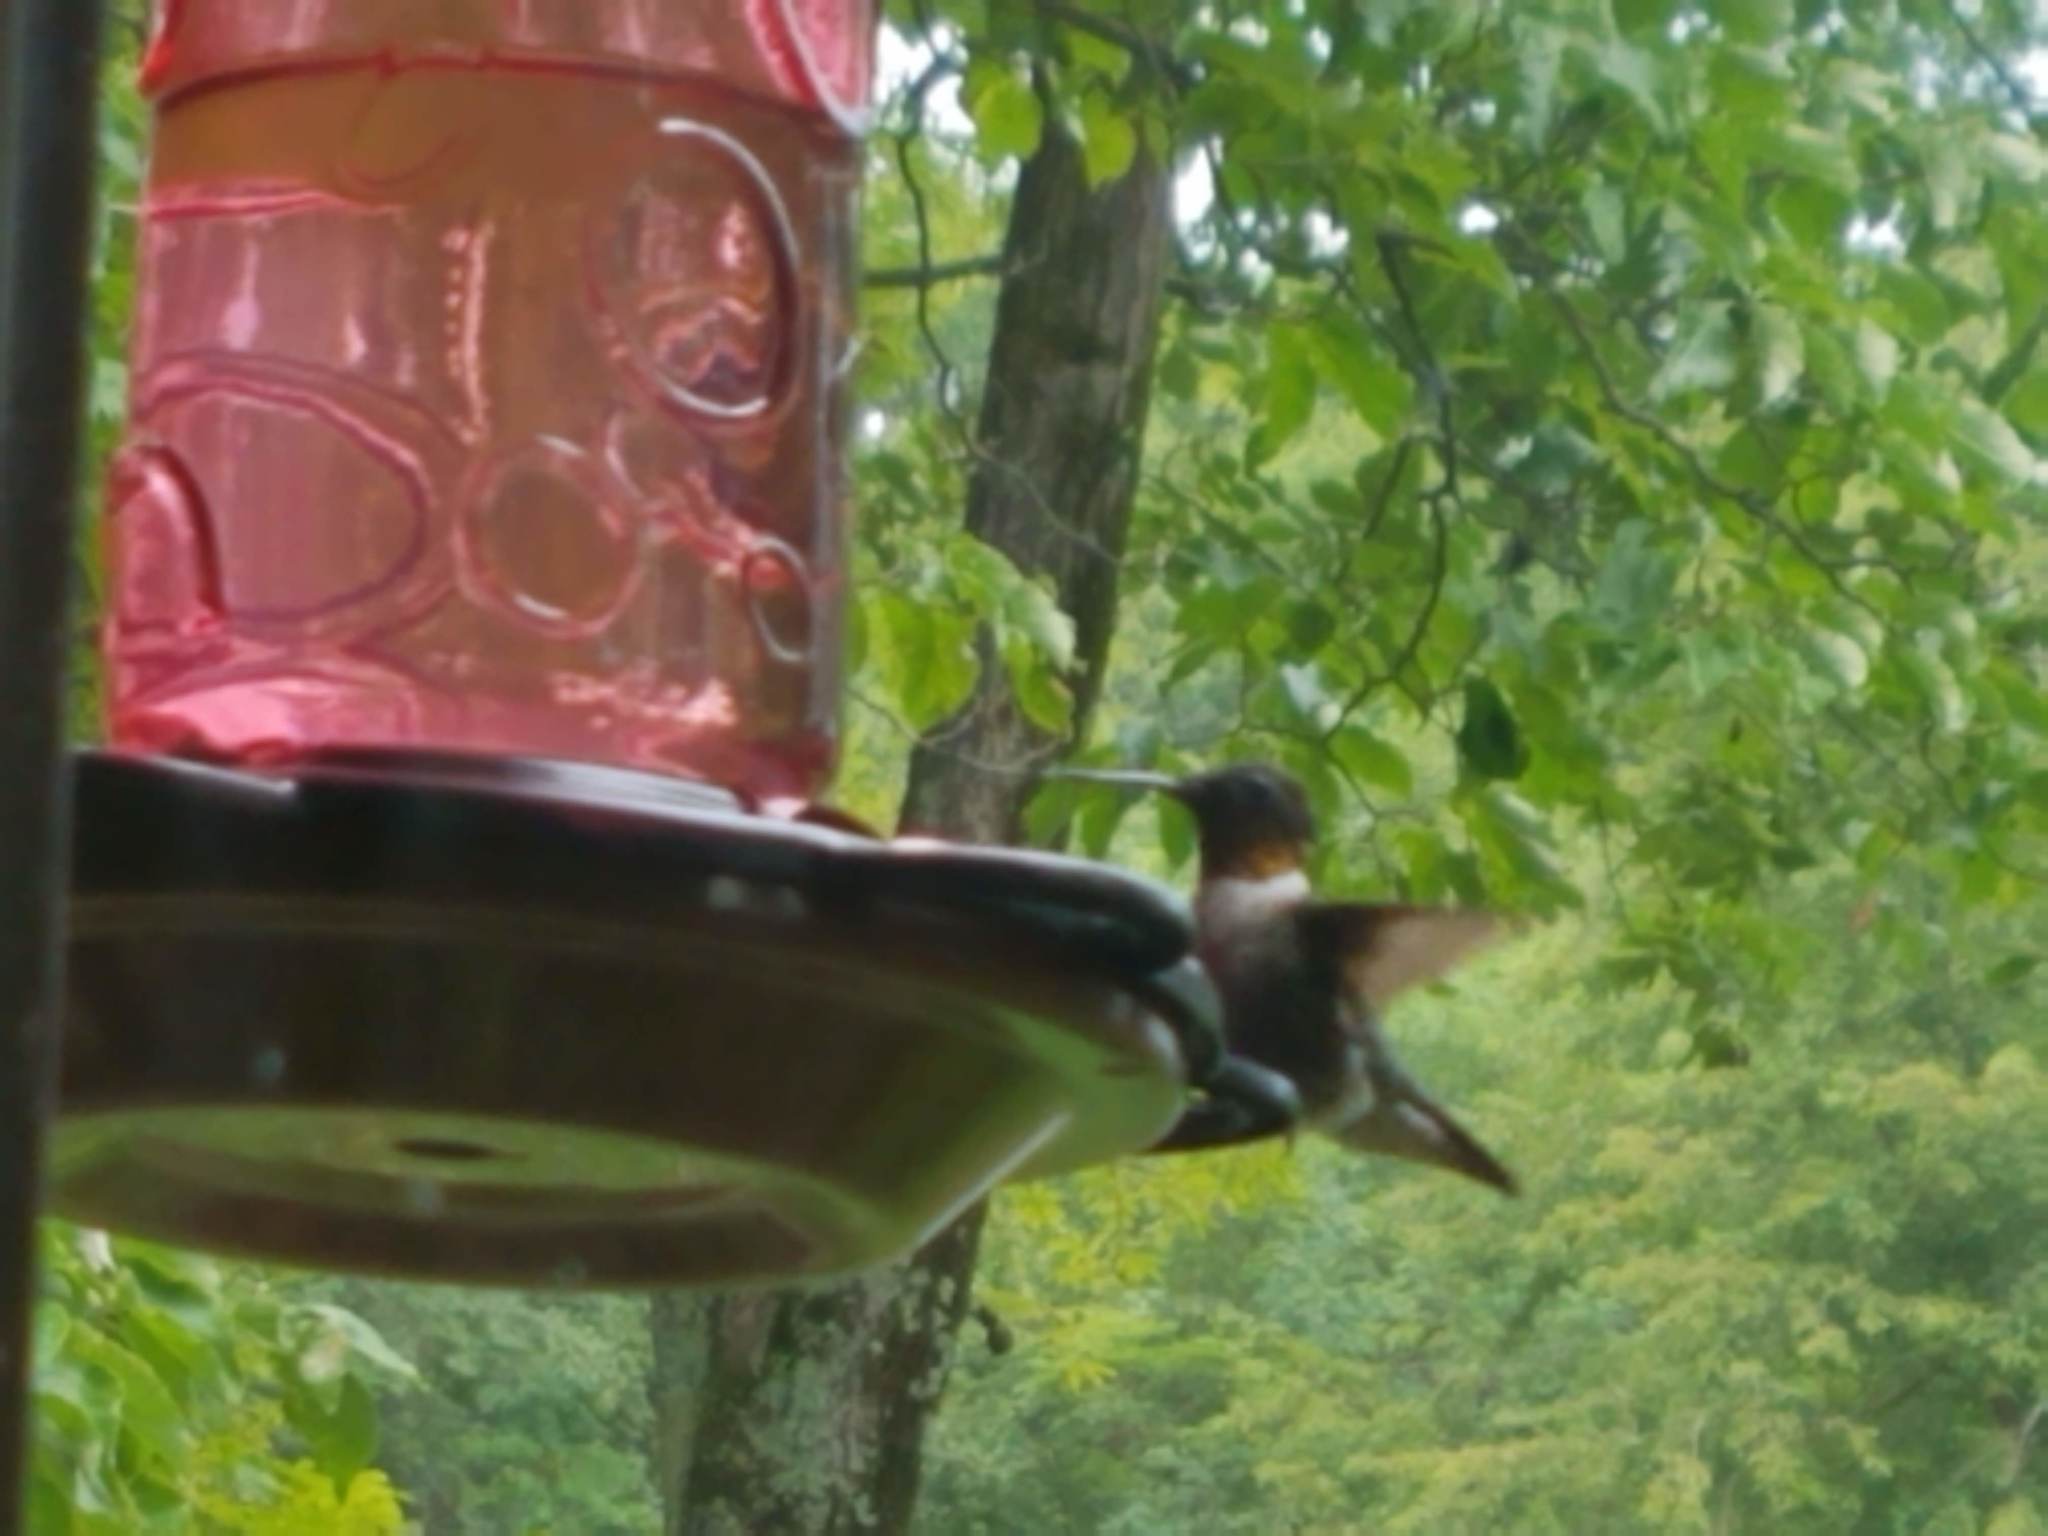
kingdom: Animalia
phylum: Chordata
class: Aves
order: Apodiformes
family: Trochilidae
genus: Archilochus
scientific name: Archilochus colubris
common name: Ruby-throated hummingbird
